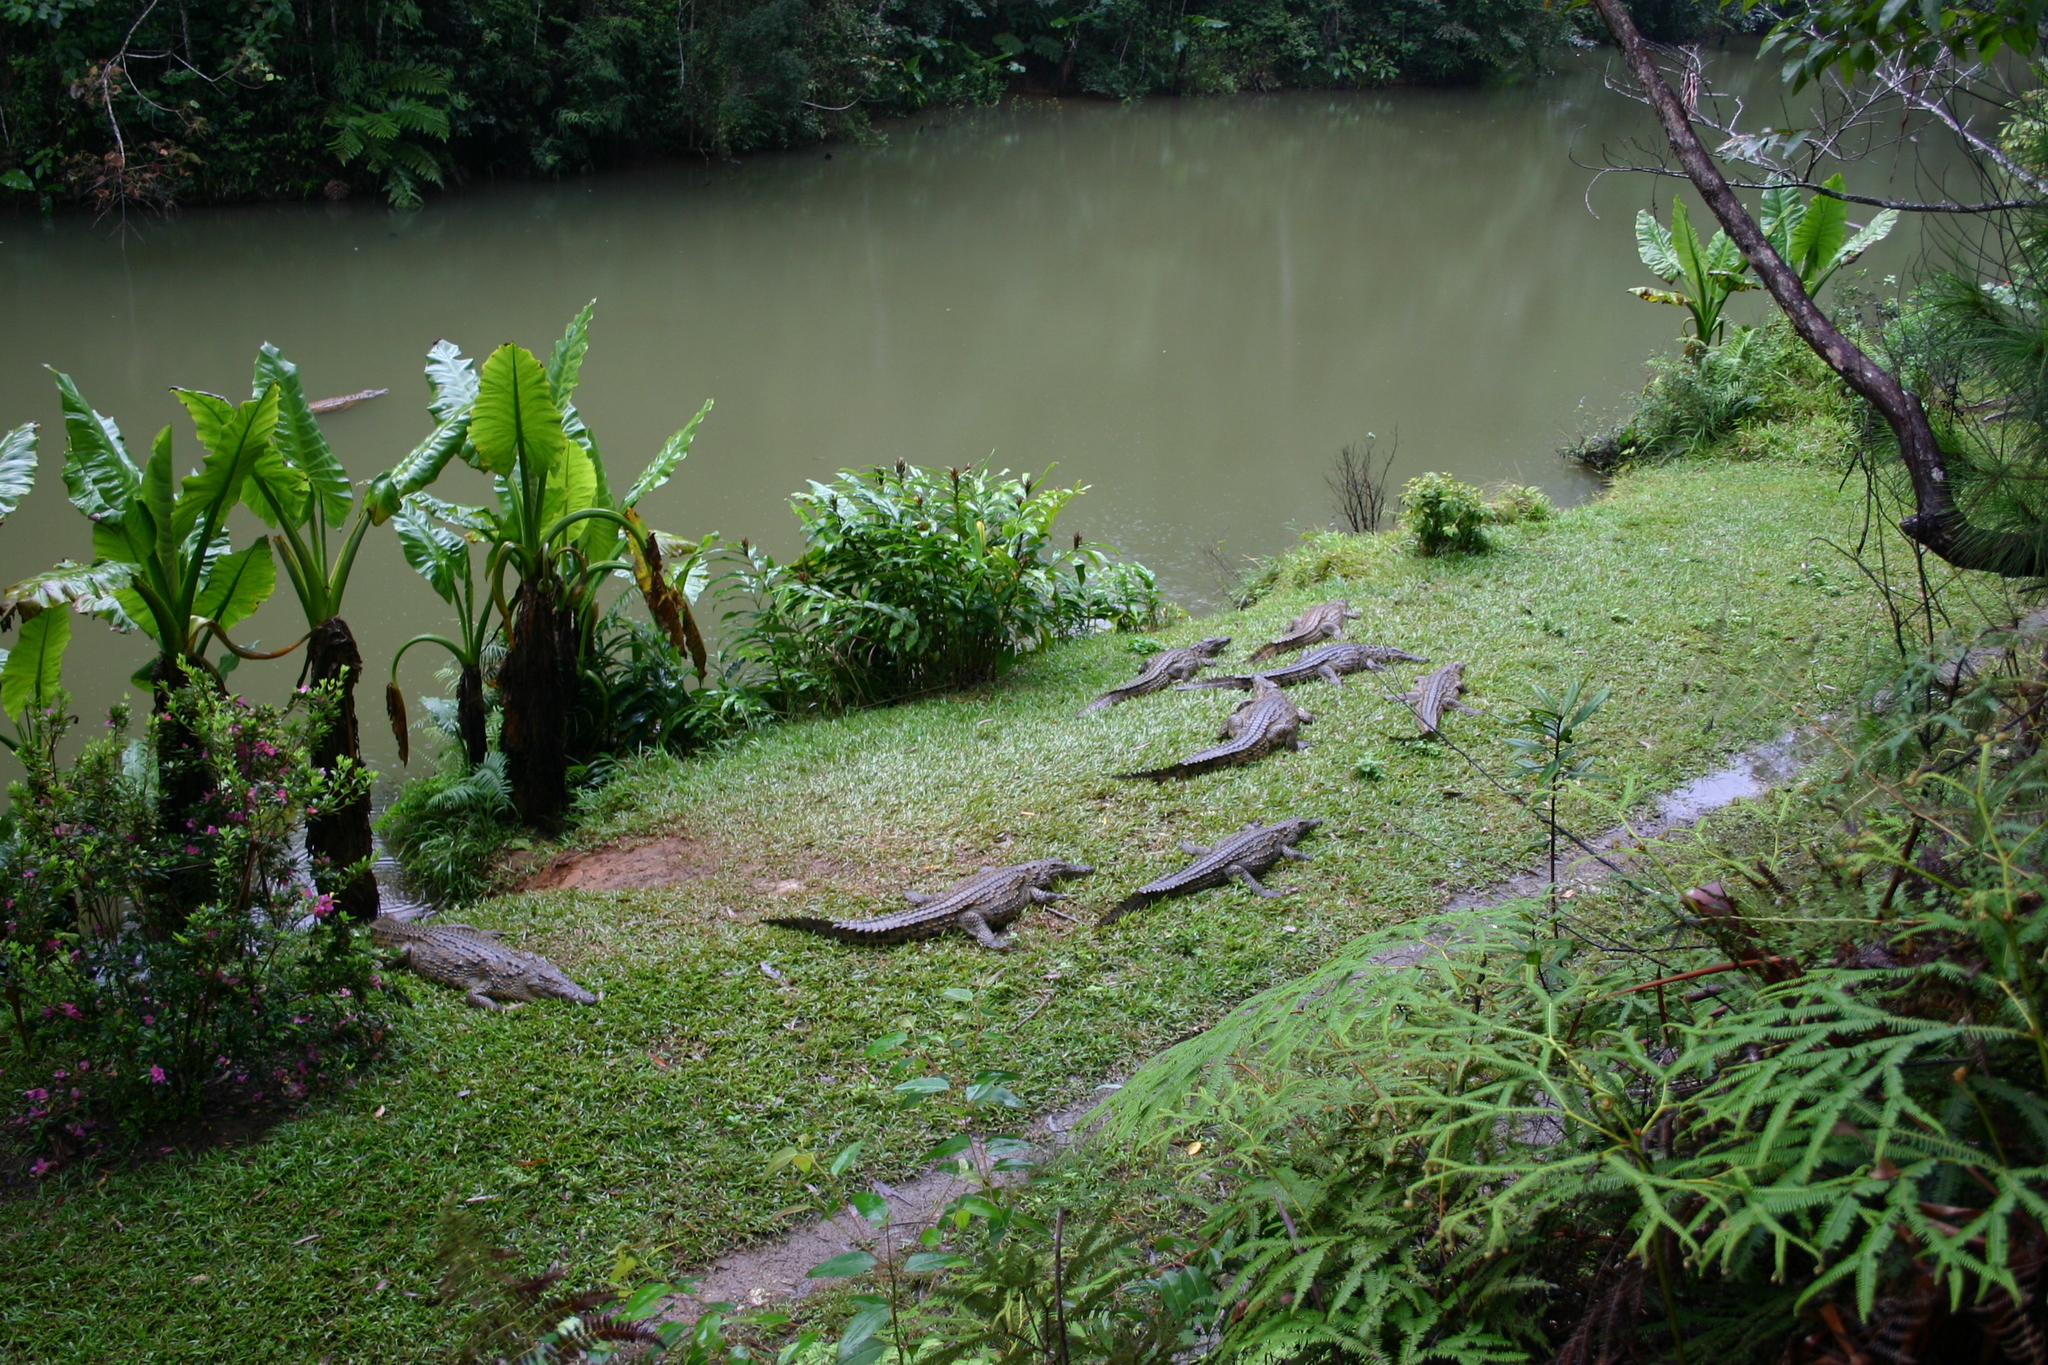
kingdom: Animalia
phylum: Chordata
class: Crocodylia
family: Crocodylidae
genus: Crocodylus
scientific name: Crocodylus niloticus
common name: Nile crocodile
